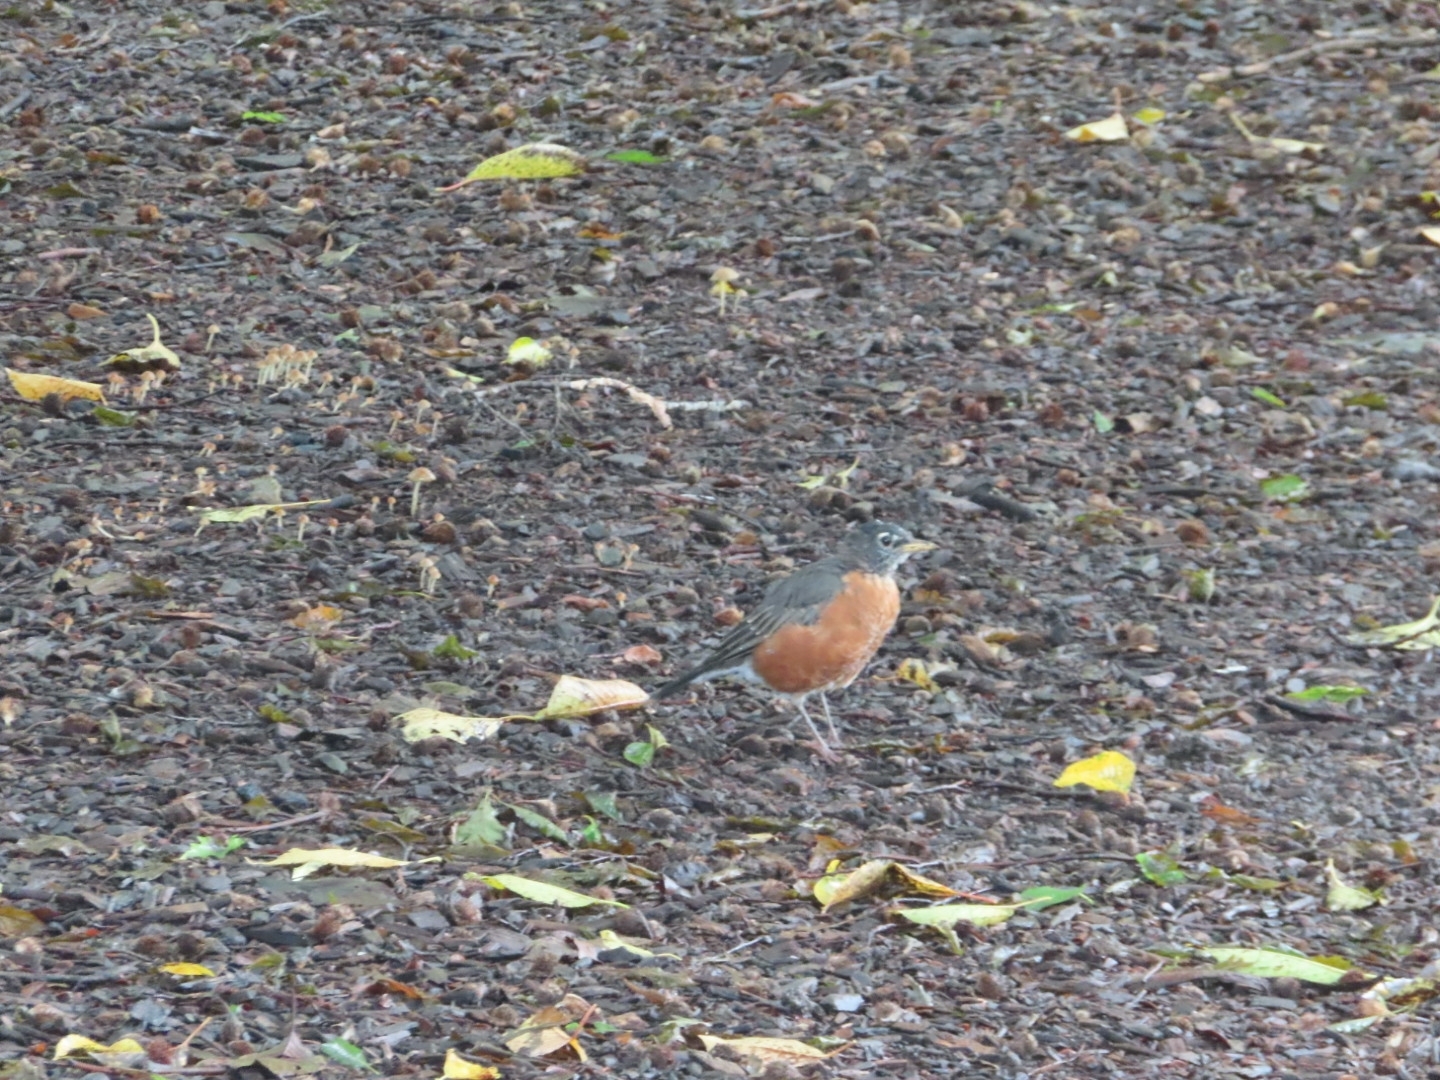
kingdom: Animalia
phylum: Chordata
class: Aves
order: Passeriformes
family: Turdidae
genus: Turdus
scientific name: Turdus migratorius
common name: American robin
